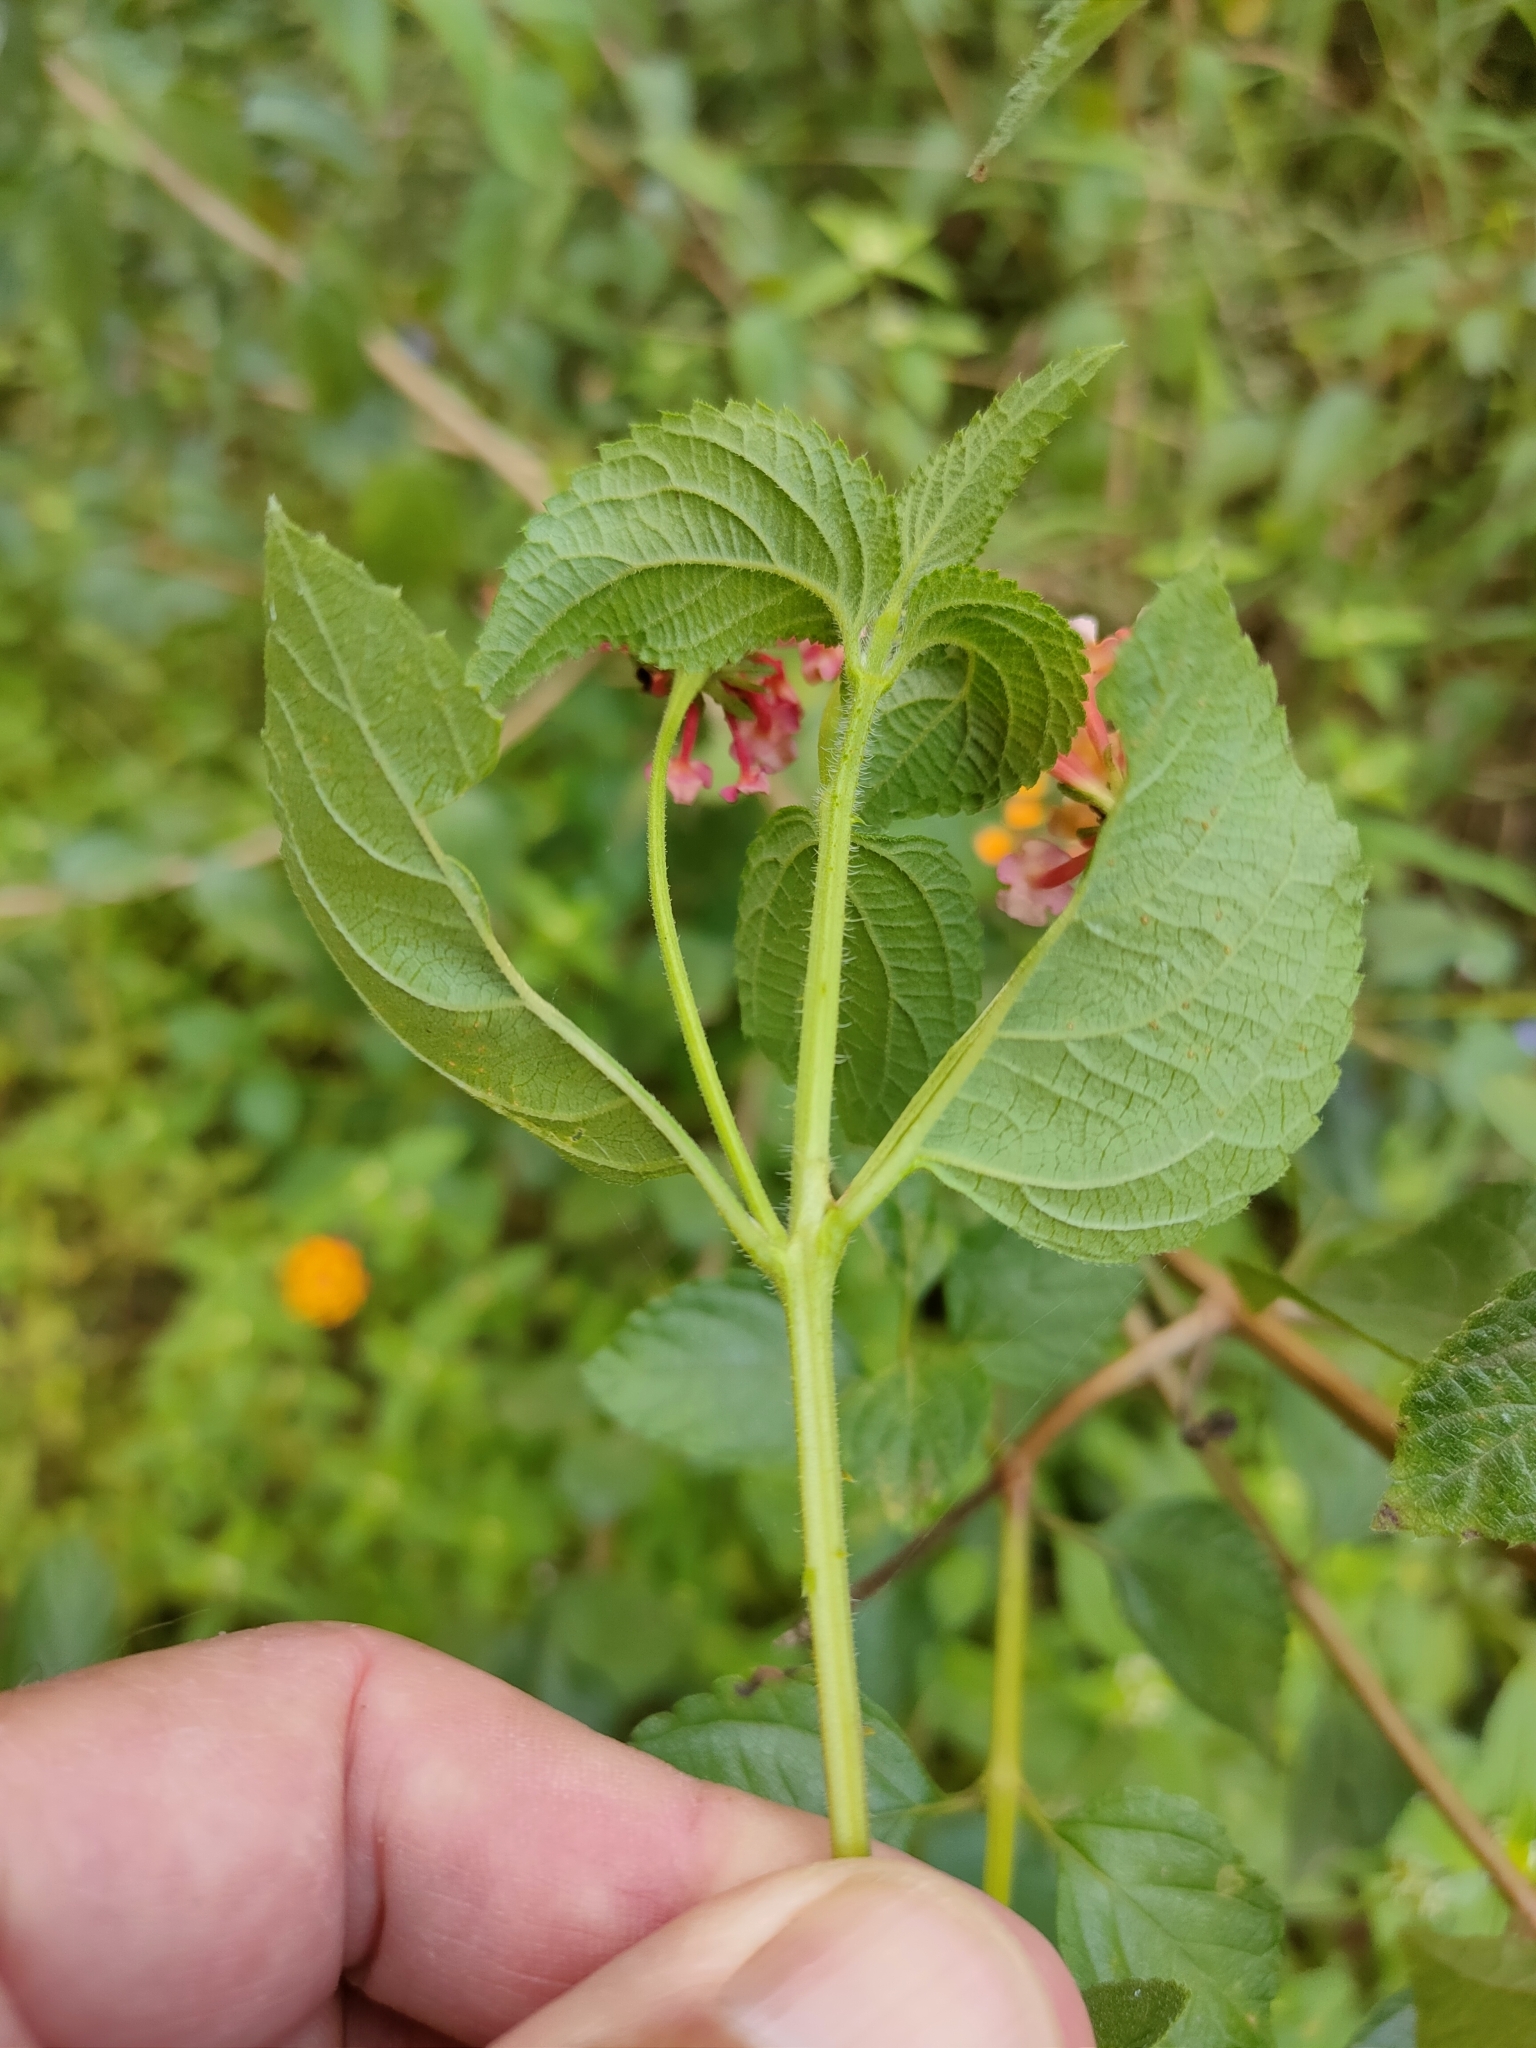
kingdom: Plantae
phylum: Tracheophyta
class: Magnoliopsida
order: Lamiales
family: Verbenaceae
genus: Lantana
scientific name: Lantana camara
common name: Lantana
